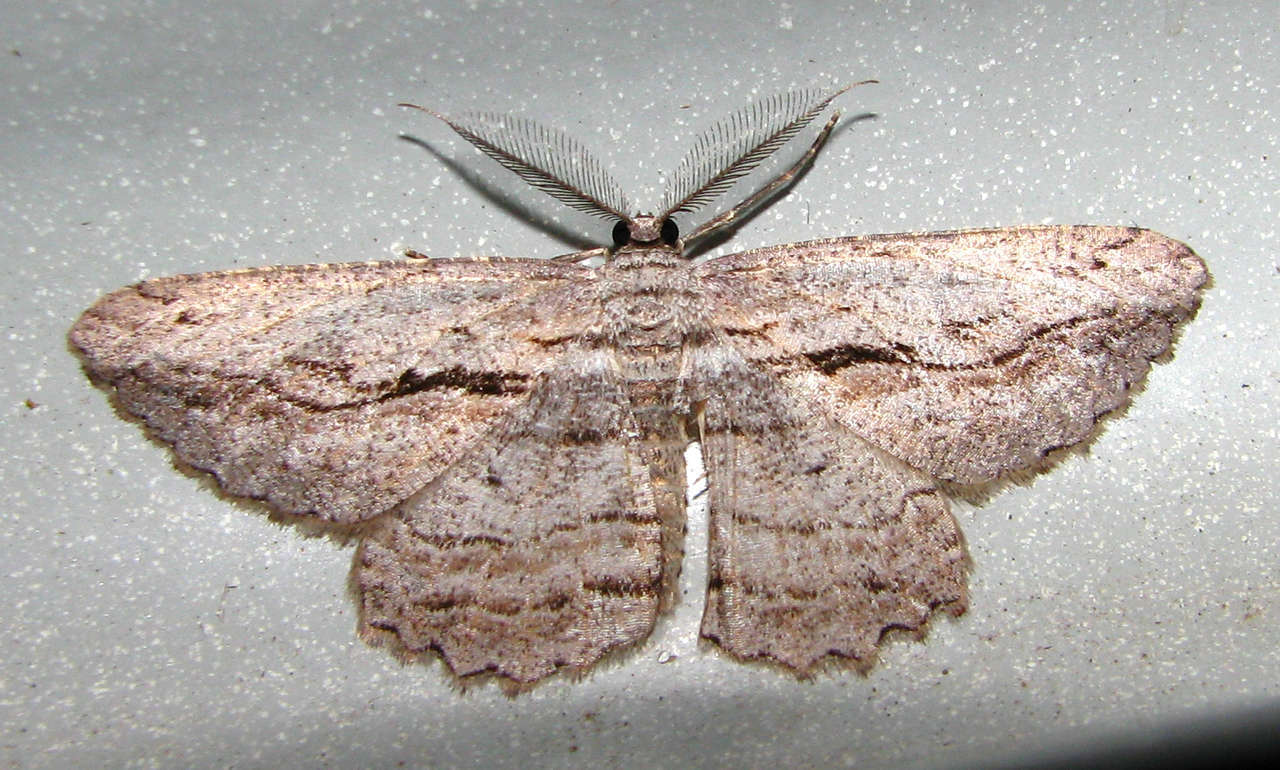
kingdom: Animalia
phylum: Arthropoda
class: Insecta
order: Lepidoptera
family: Geometridae
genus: Scioglyptis
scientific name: Scioglyptis loxographa
